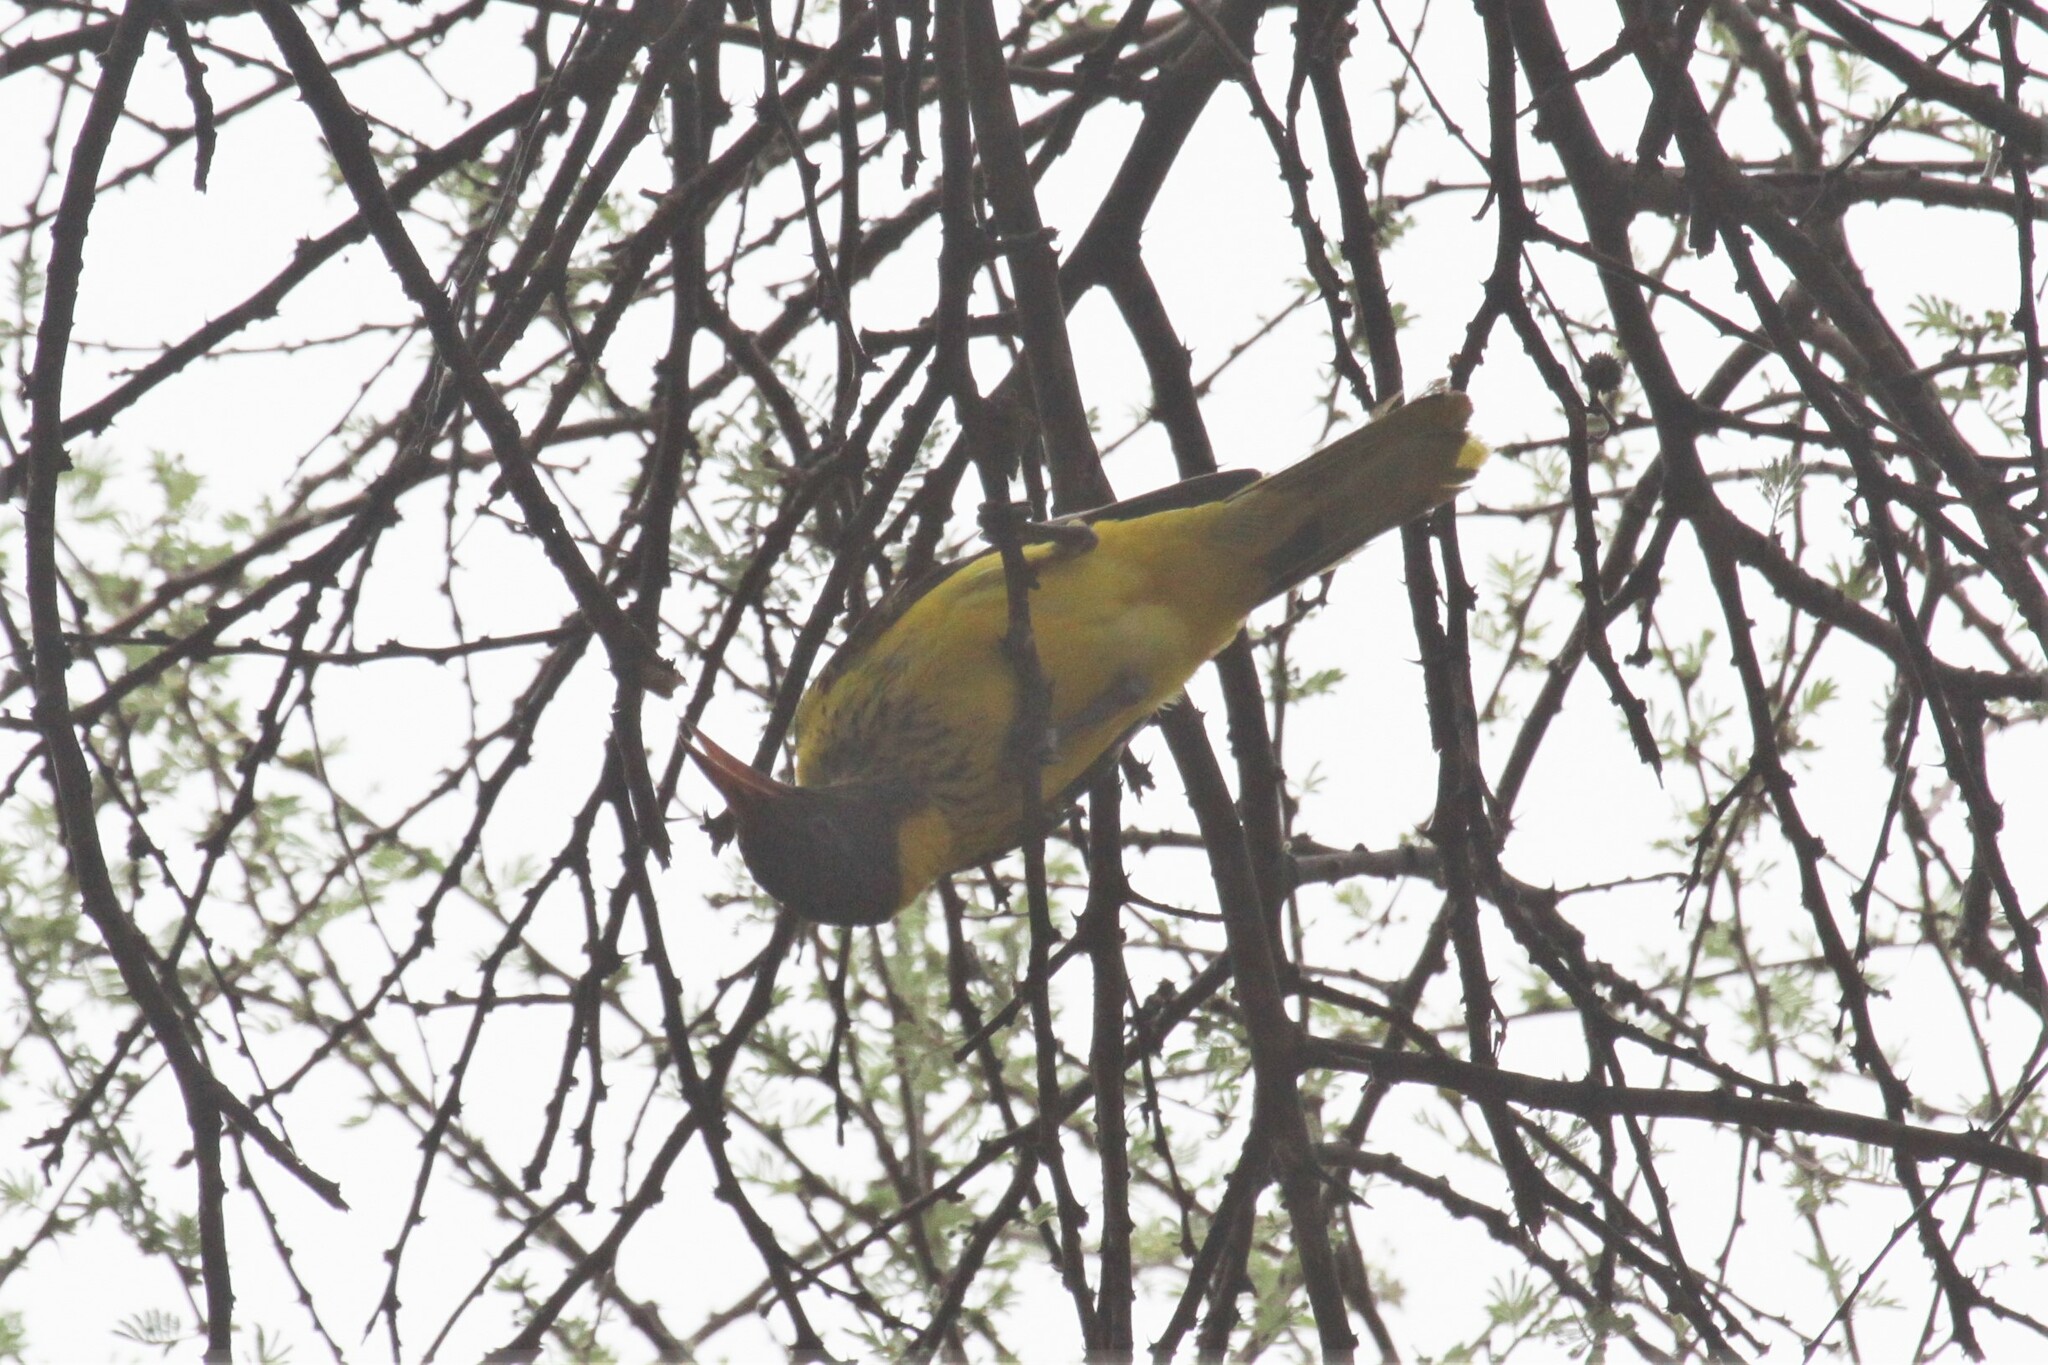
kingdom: Animalia
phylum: Chordata
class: Aves
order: Passeriformes
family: Oriolidae
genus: Oriolus
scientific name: Oriolus larvatus
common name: Black-headed oriole
